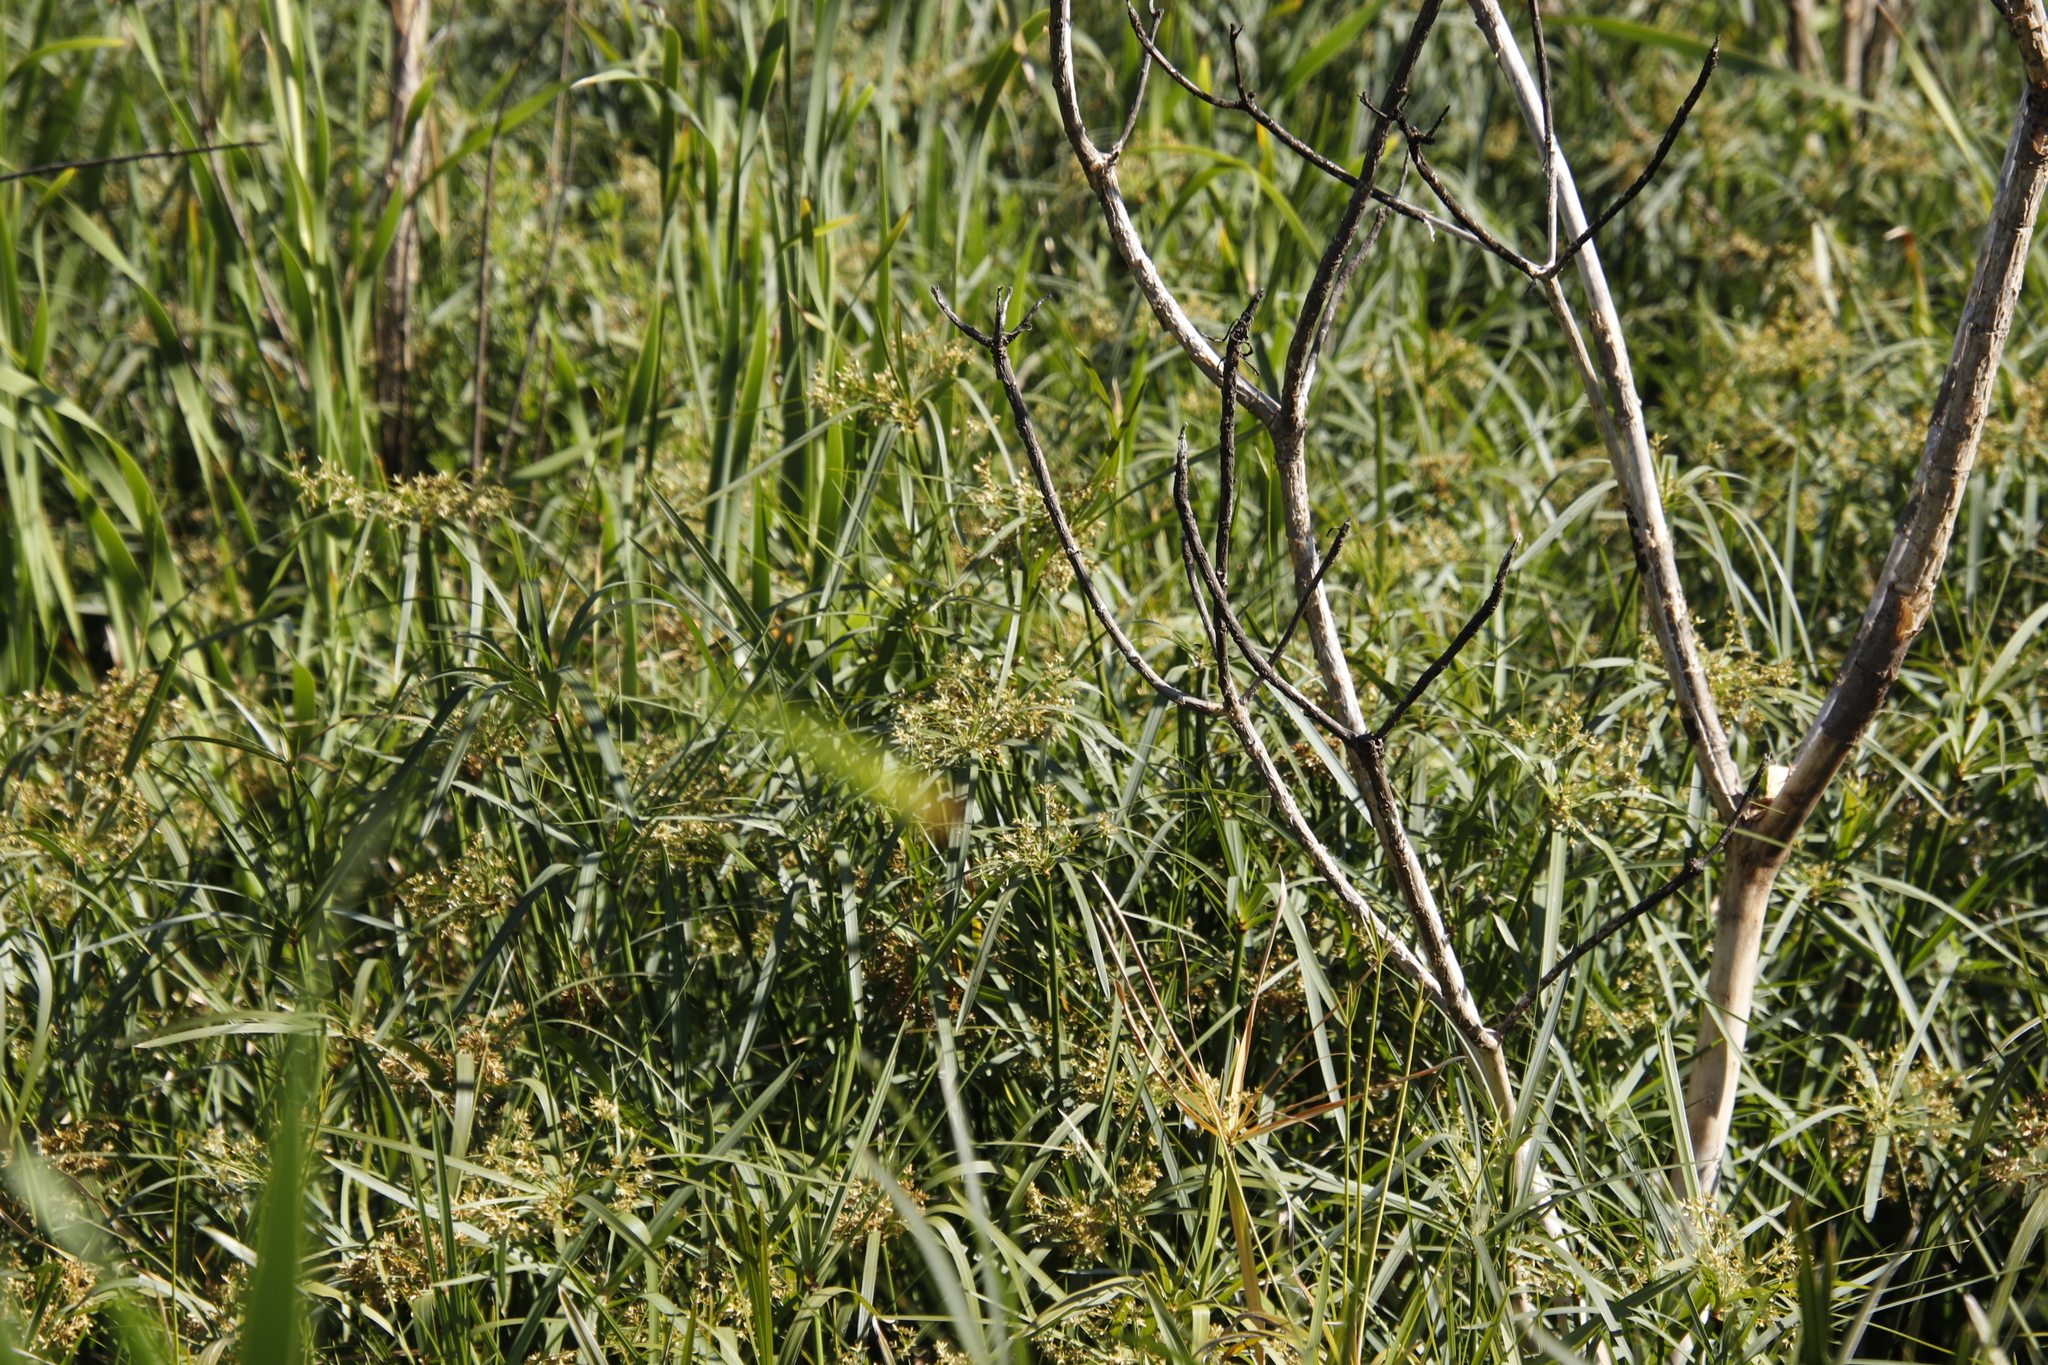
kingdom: Plantae
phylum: Tracheophyta
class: Liliopsida
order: Poales
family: Cyperaceae
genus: Cyperus
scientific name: Cyperus textilis
